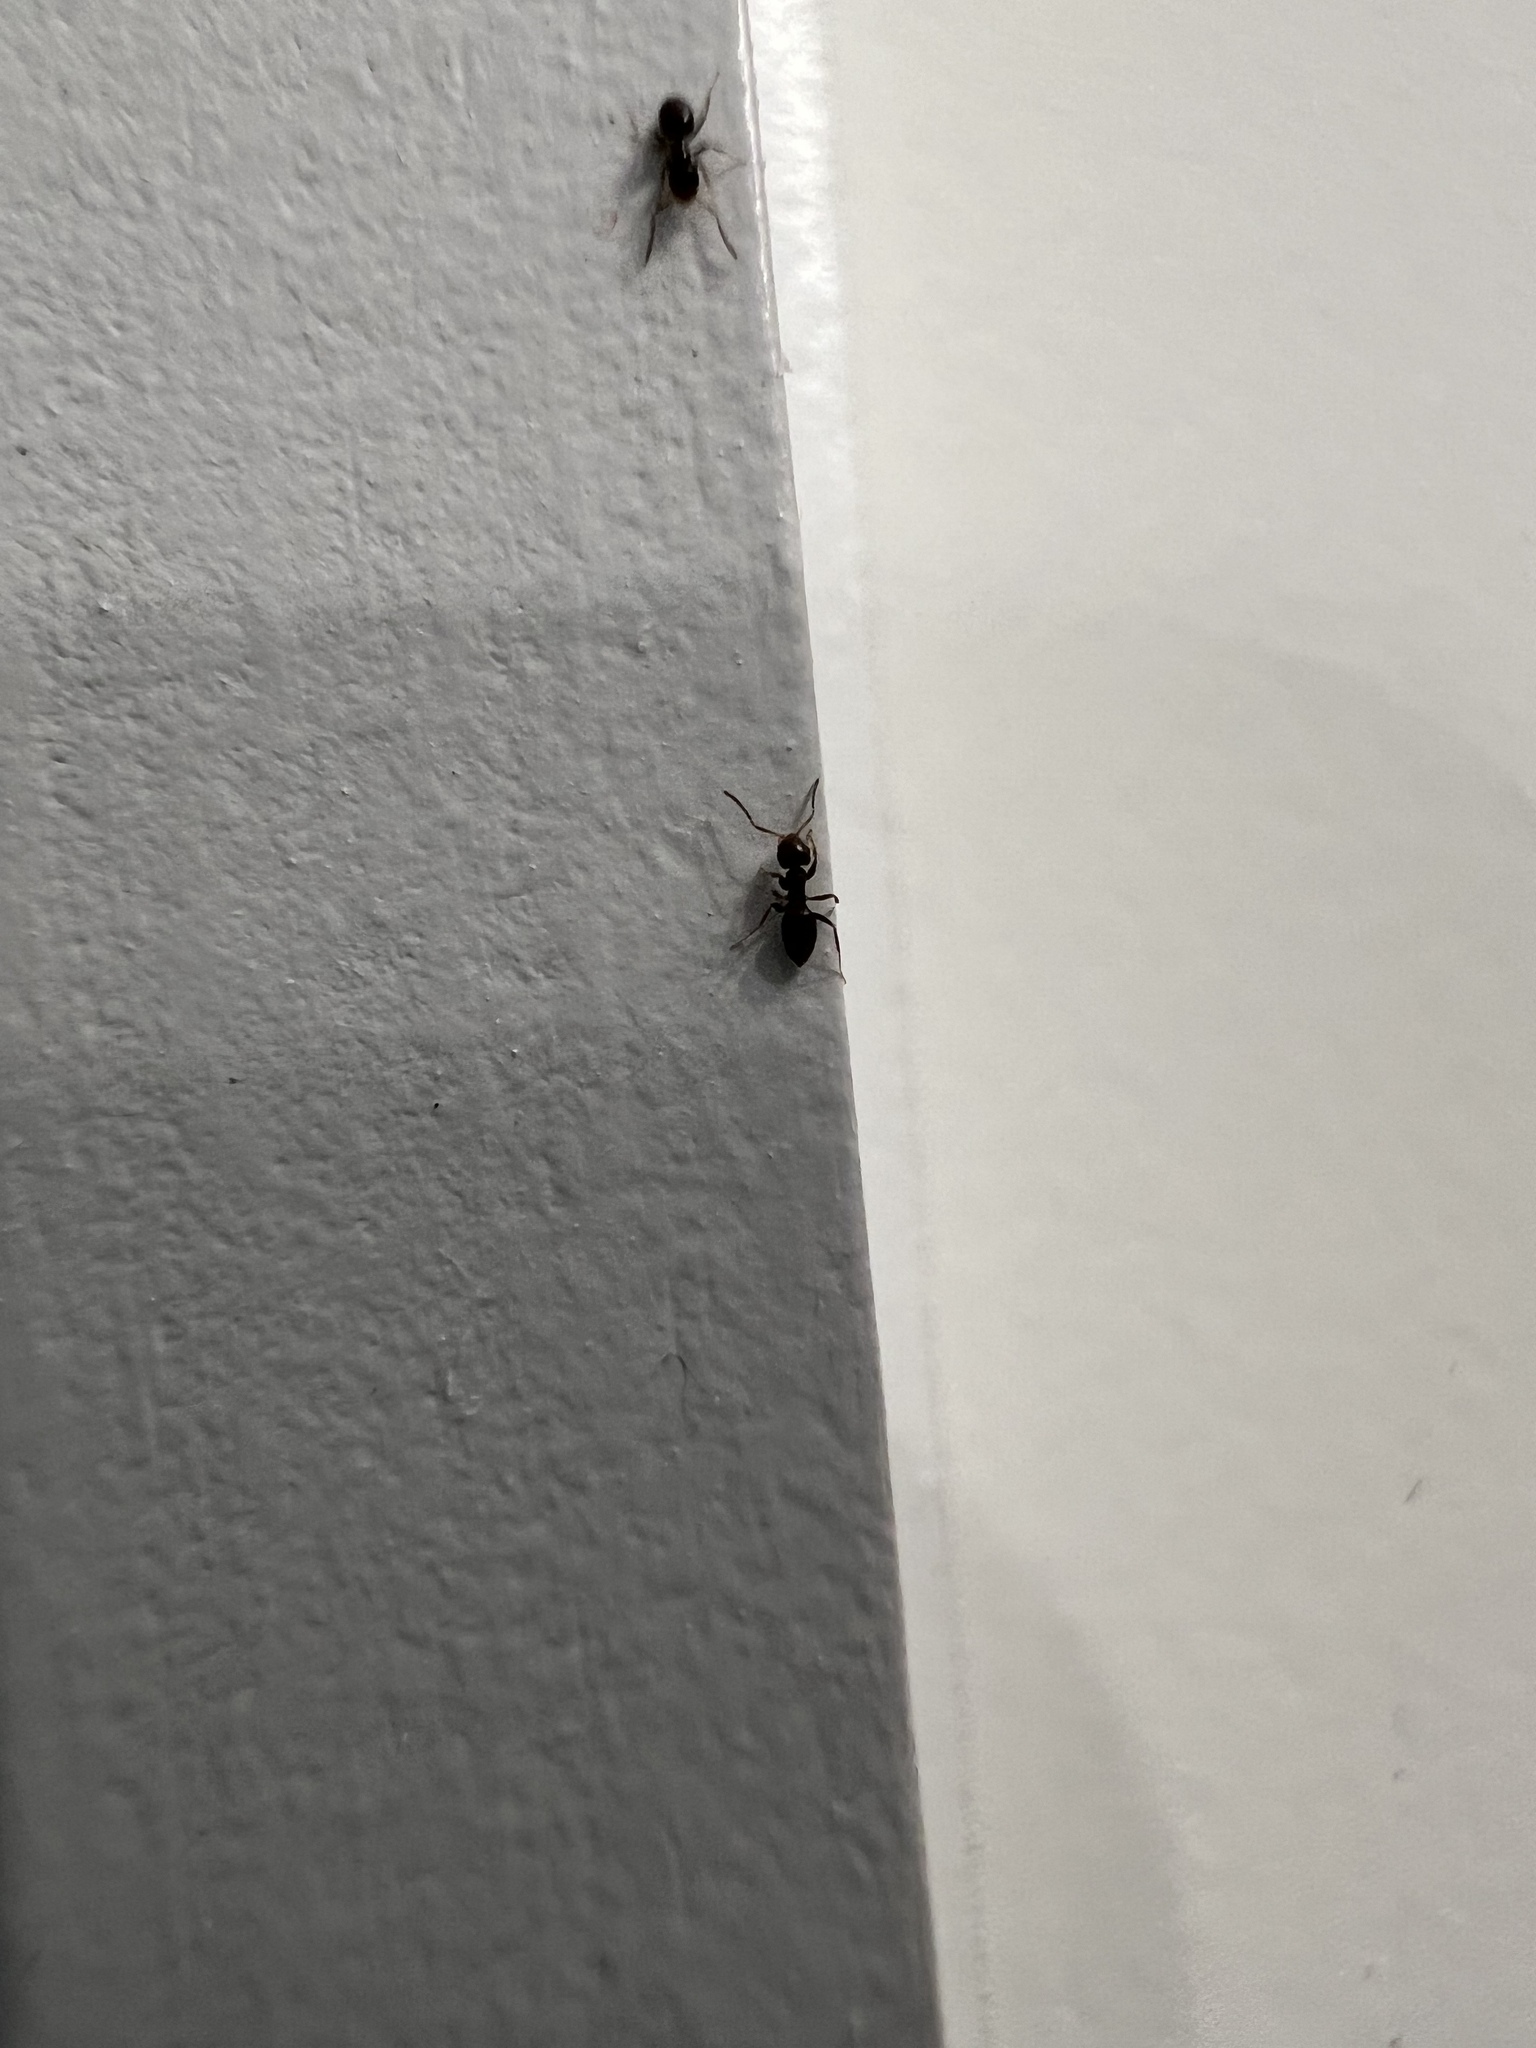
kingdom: Animalia
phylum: Arthropoda
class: Insecta
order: Hymenoptera
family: Formicidae
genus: Brachymyrmex
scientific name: Brachymyrmex patagonicus
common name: Dark rover ant
